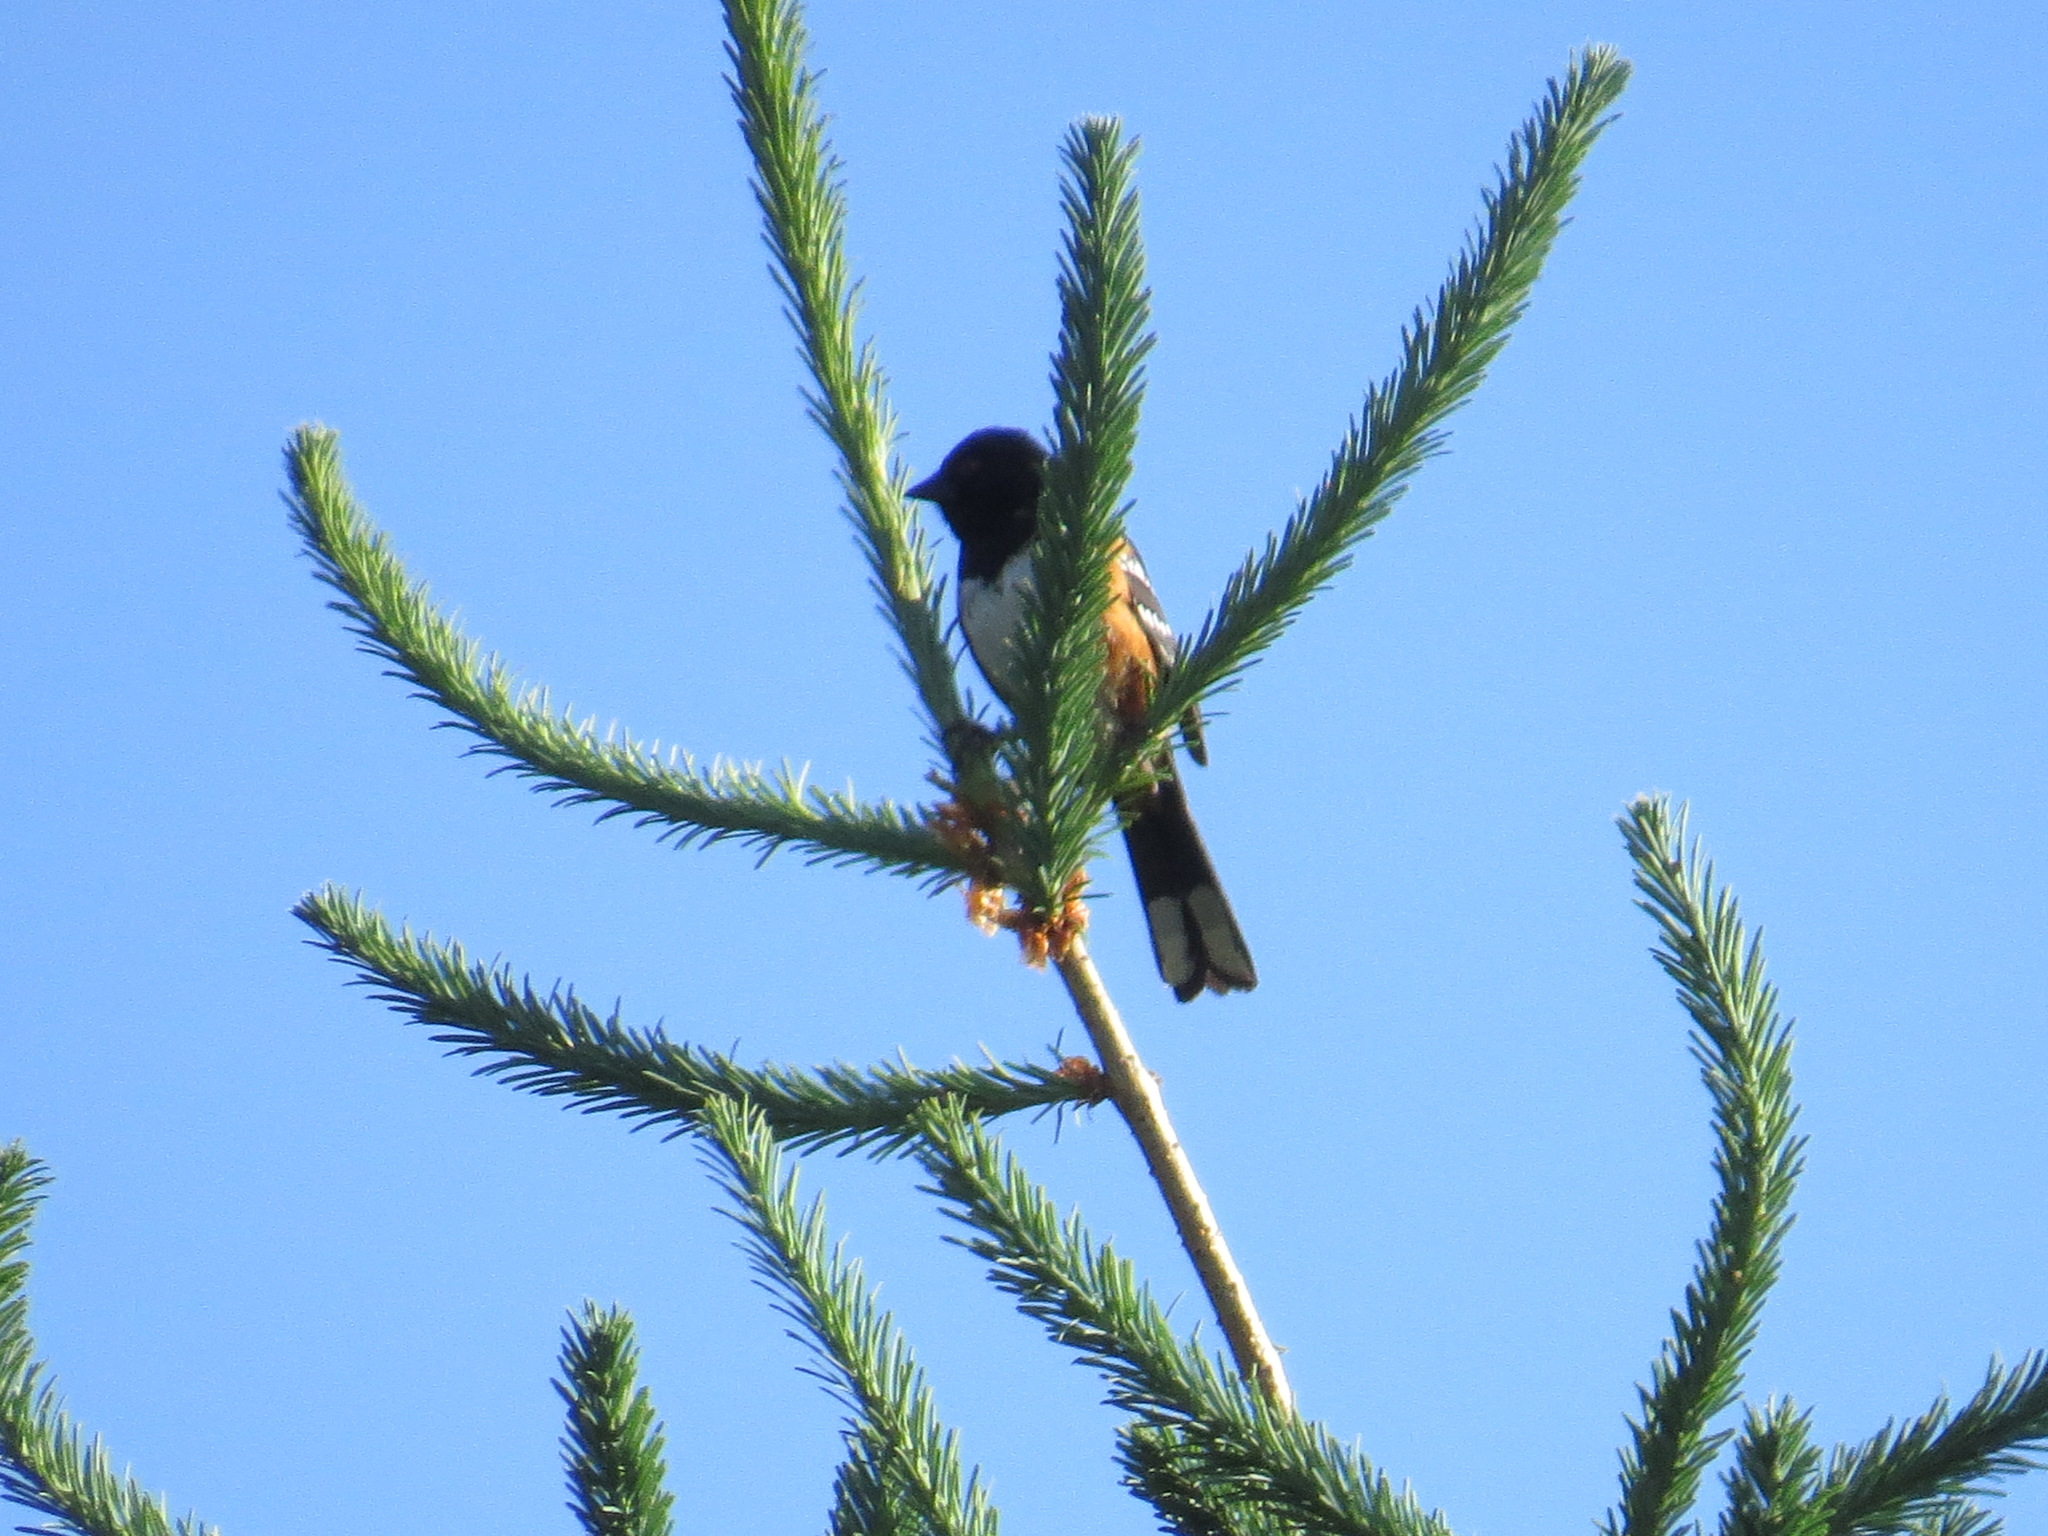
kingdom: Animalia
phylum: Chordata
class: Aves
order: Passeriformes
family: Passerellidae
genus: Pipilo
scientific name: Pipilo maculatus
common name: Spotted towhee
